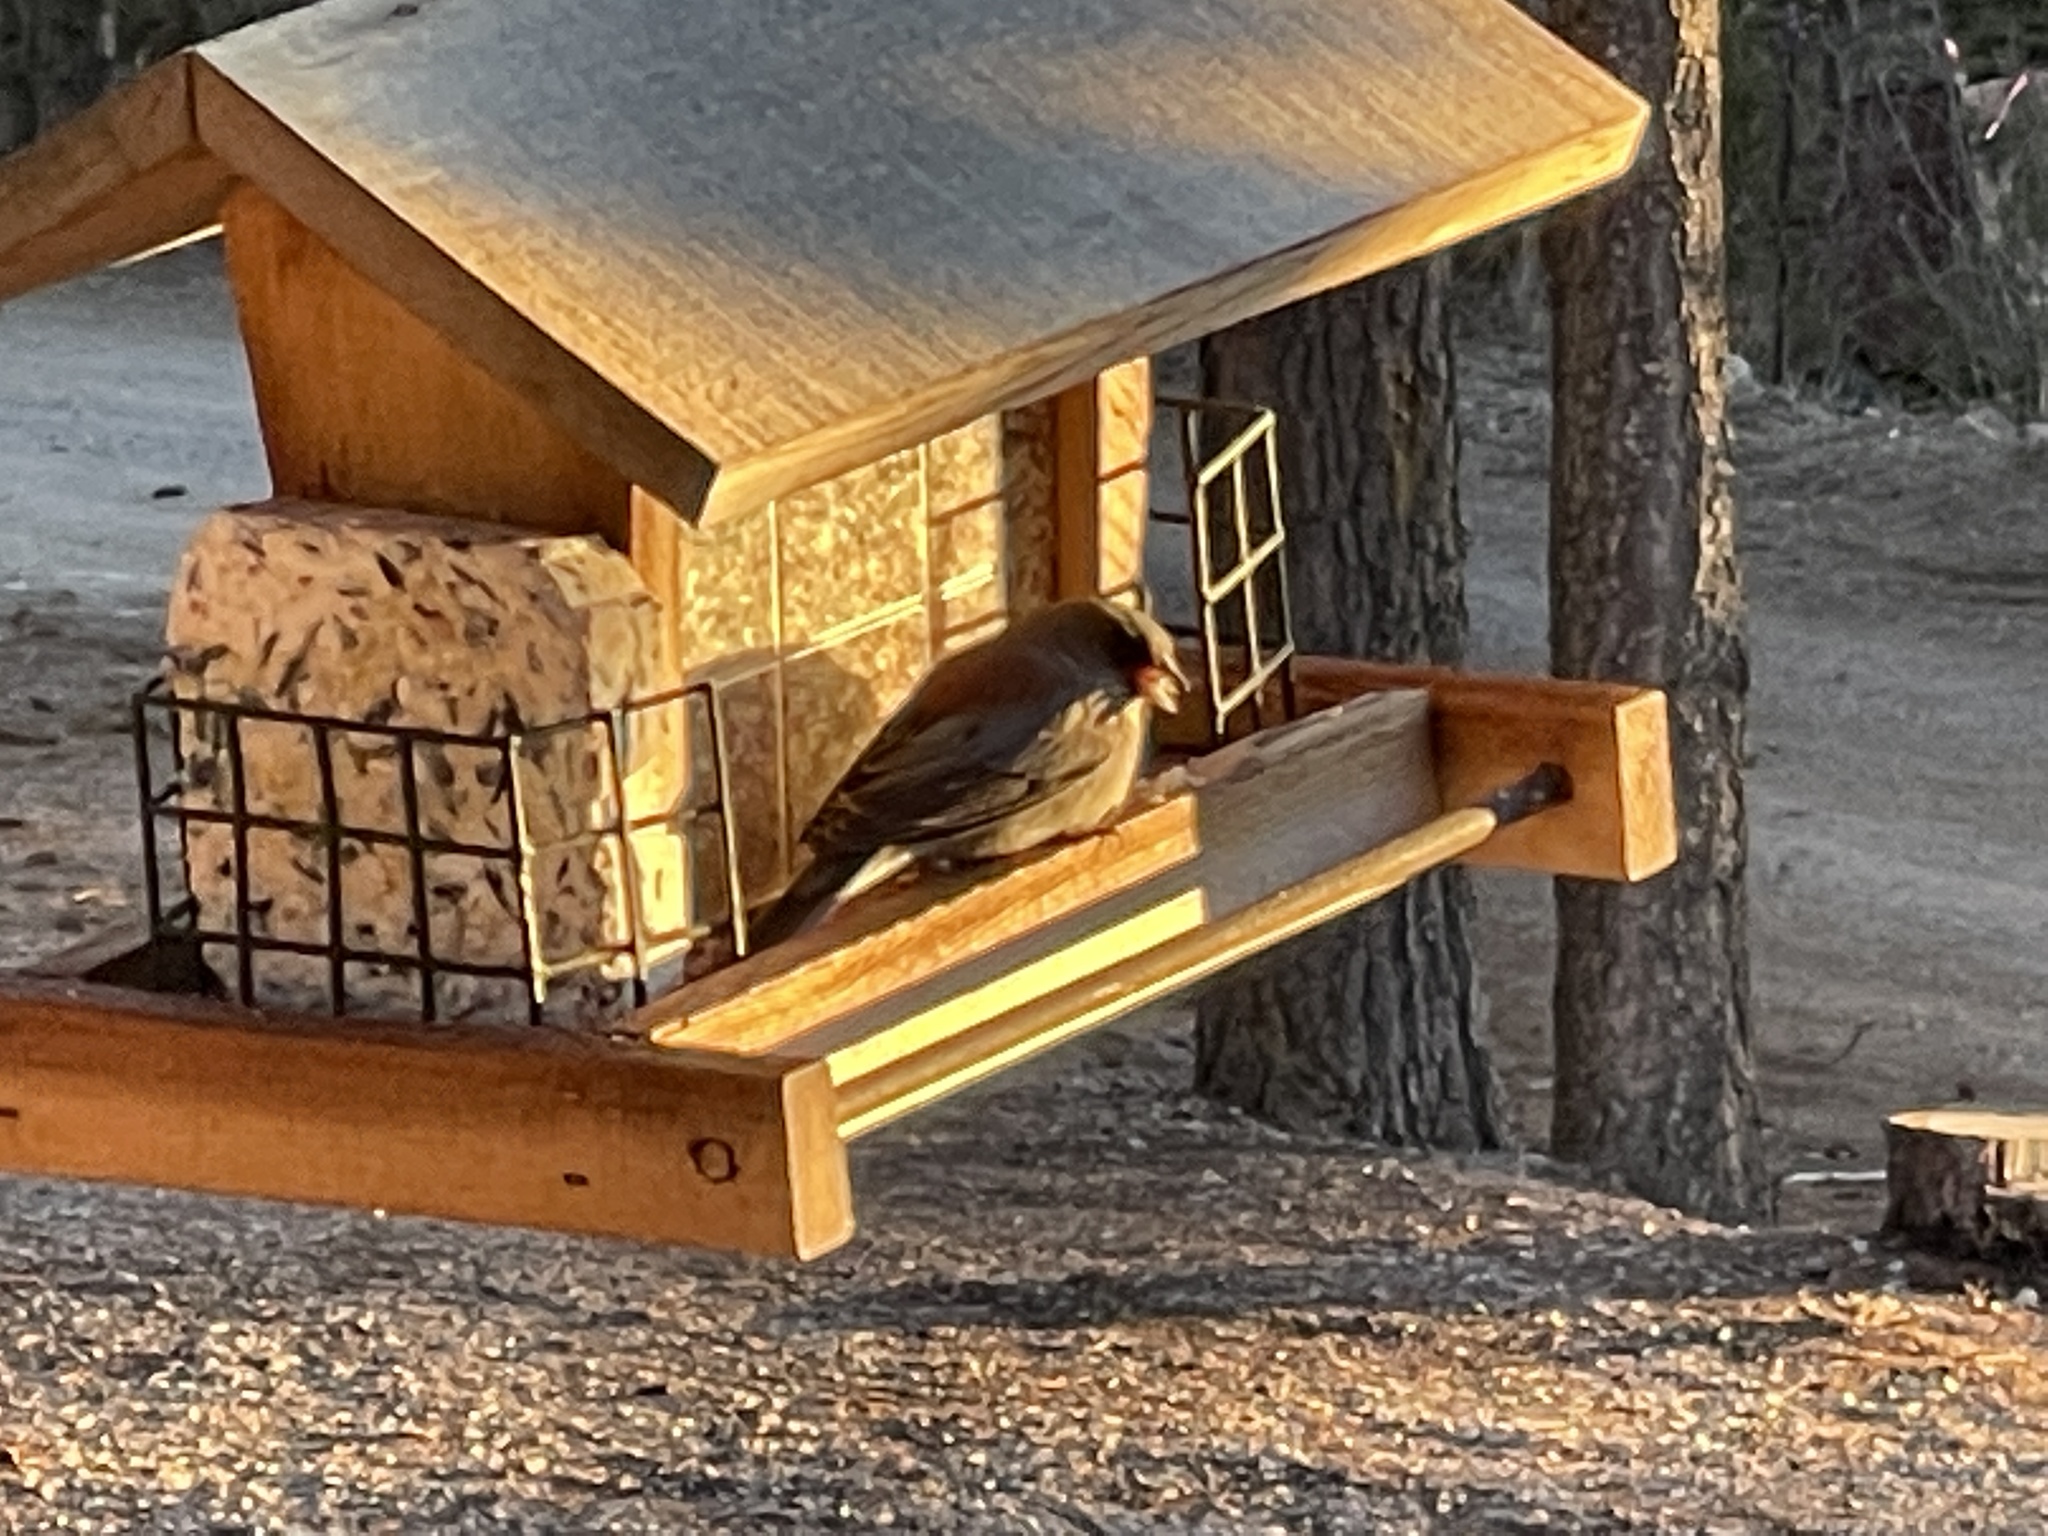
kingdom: Animalia
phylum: Chordata
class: Aves
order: Passeriformes
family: Passerellidae
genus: Junco
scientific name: Junco hyemalis
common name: Dark-eyed junco
